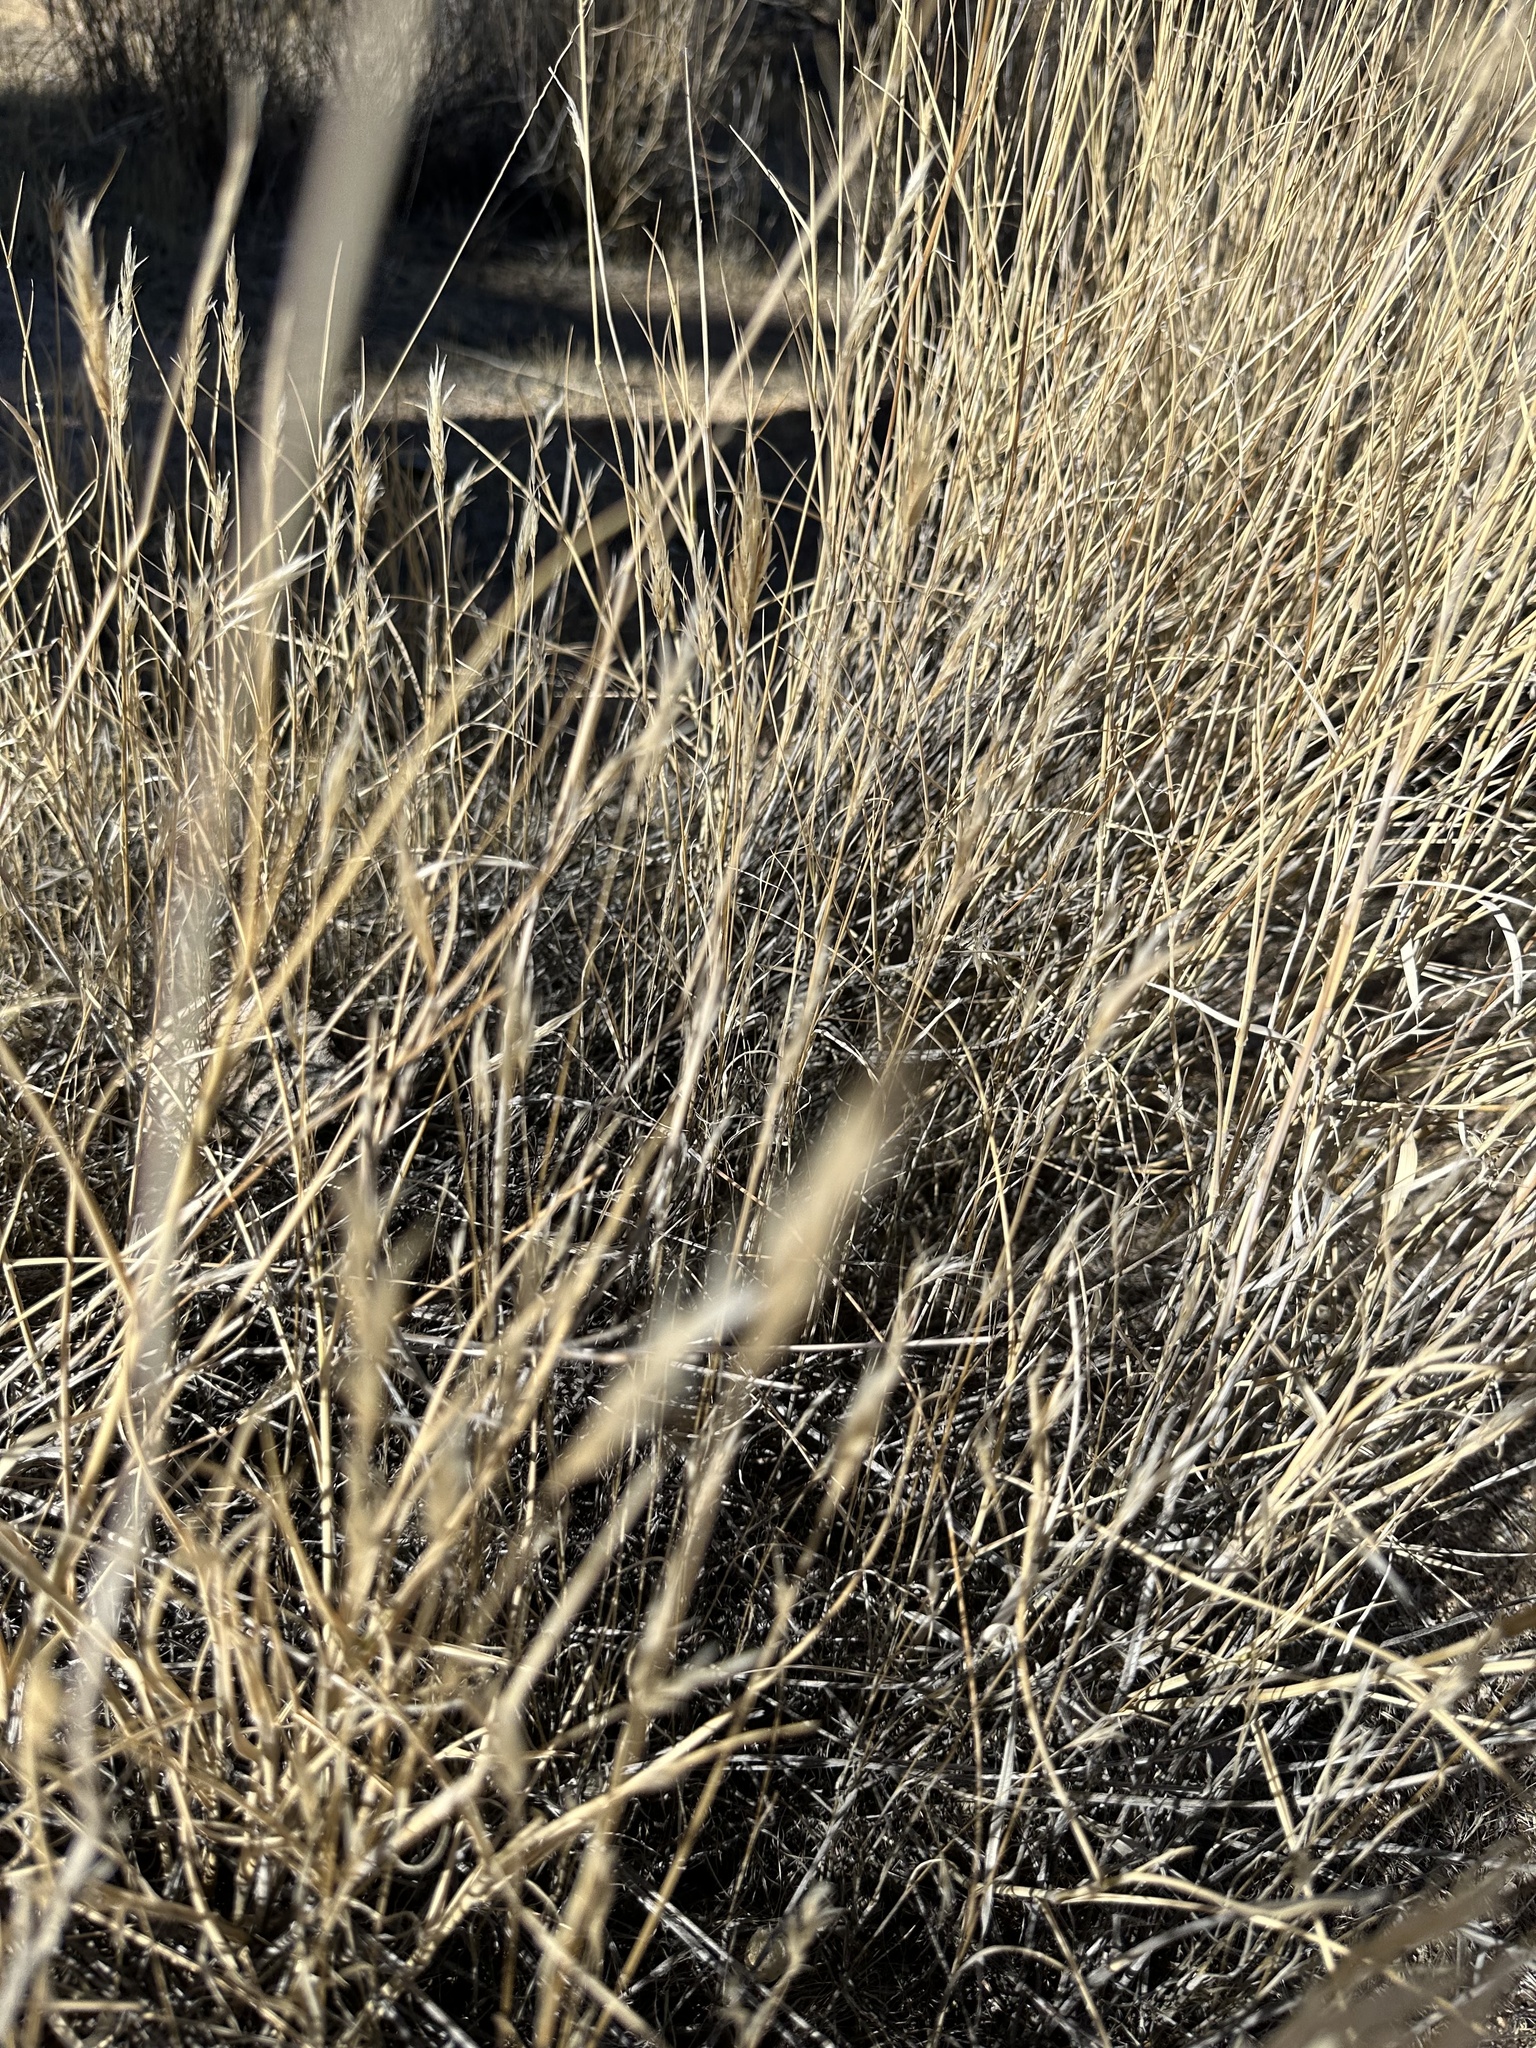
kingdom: Plantae
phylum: Tracheophyta
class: Liliopsida
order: Poales
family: Poaceae
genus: Hilaria
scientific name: Hilaria rigida
